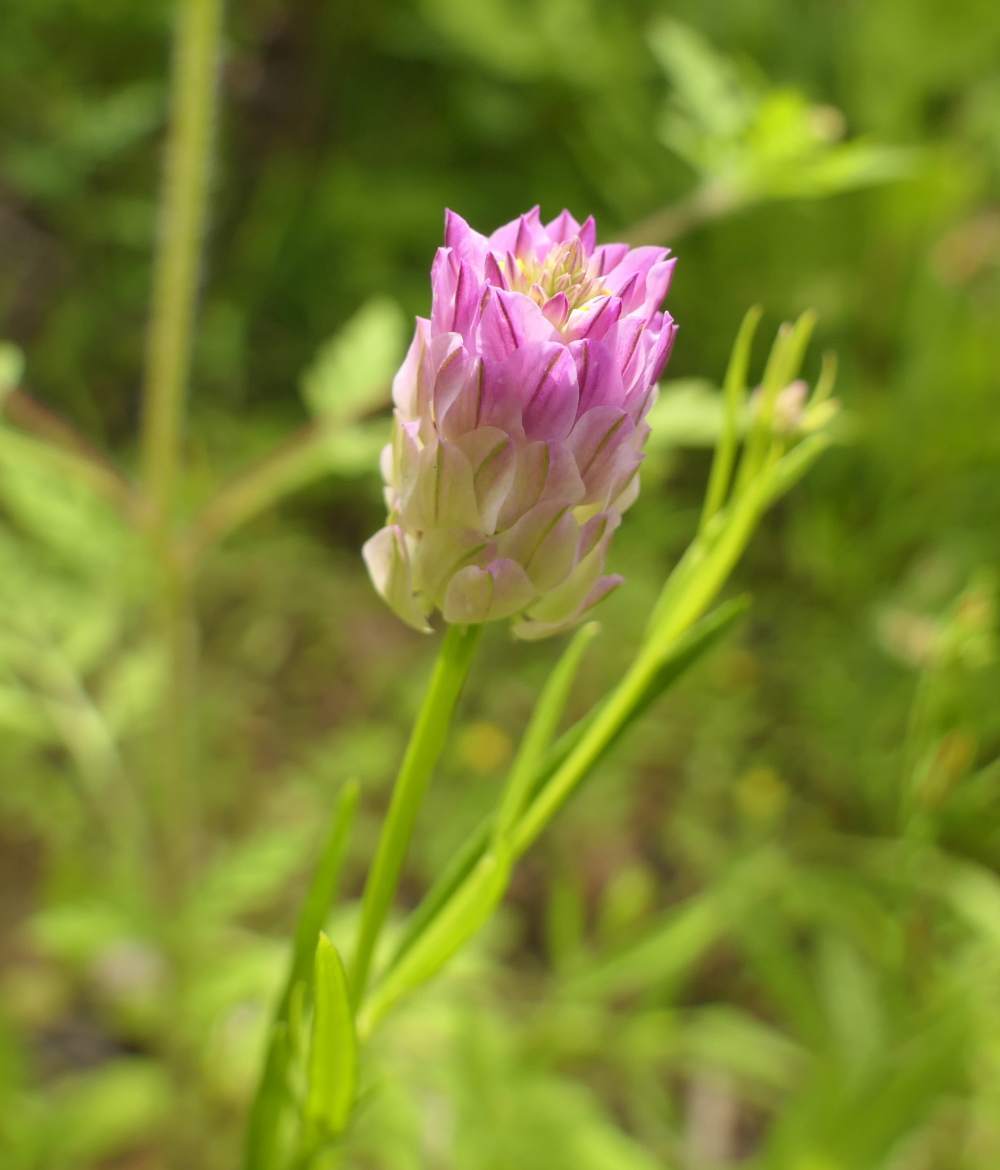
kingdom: Plantae
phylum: Tracheophyta
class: Magnoliopsida
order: Fabales
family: Polygalaceae
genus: Polygala
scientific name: Polygala sanguinea
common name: Blood milkwort
